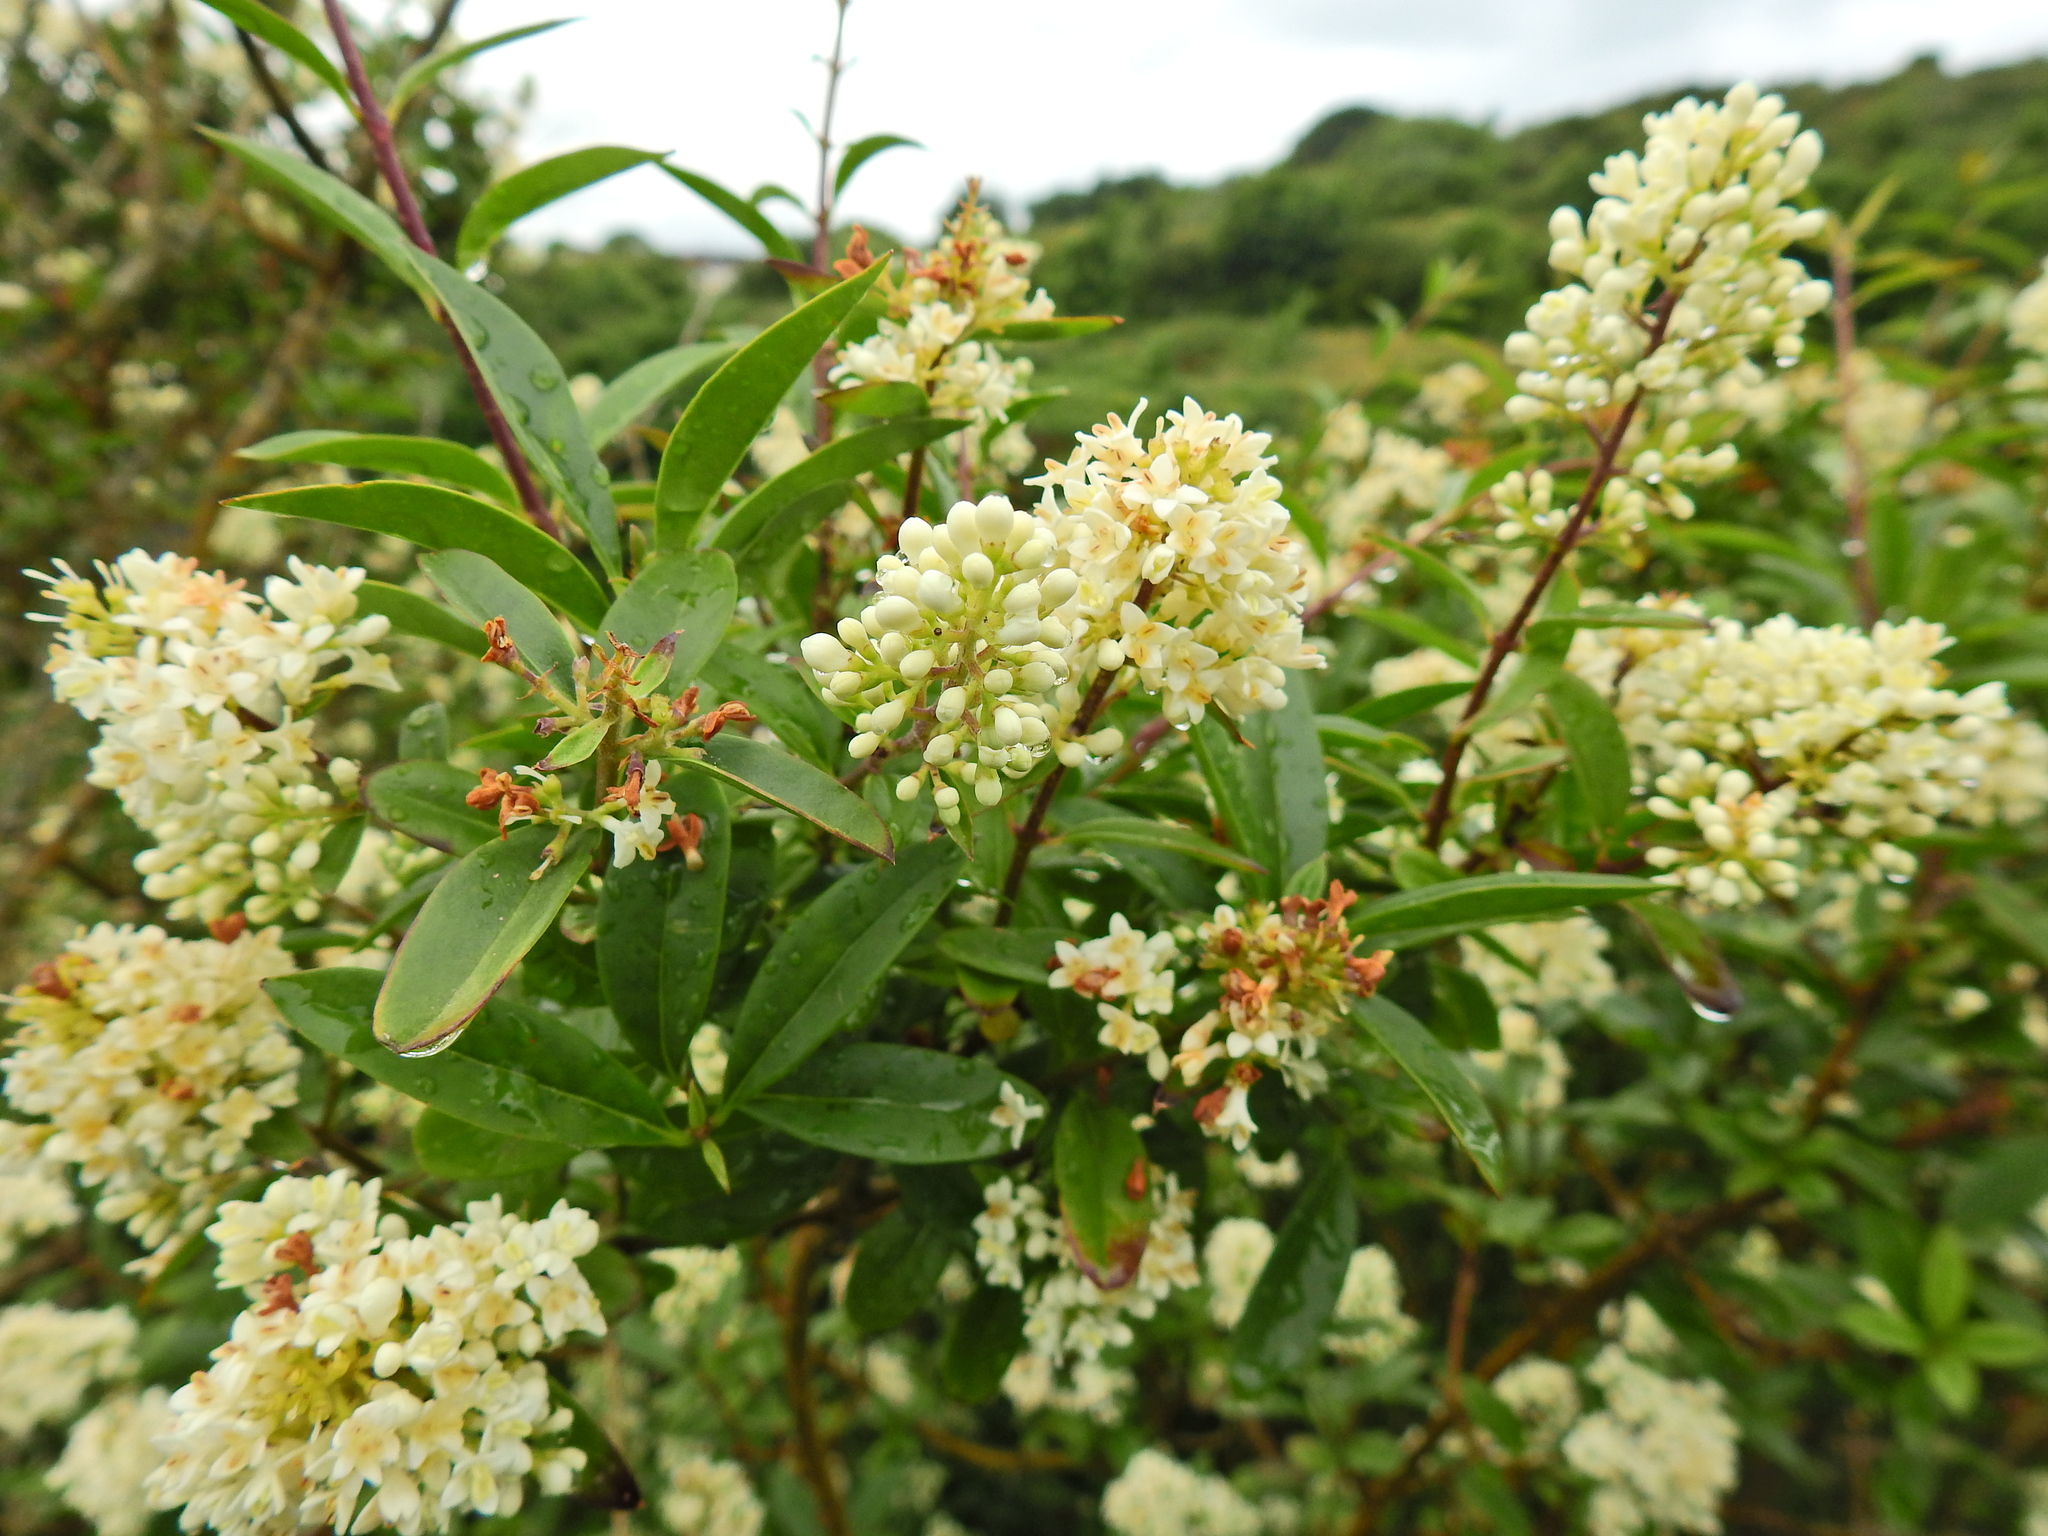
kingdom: Plantae
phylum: Tracheophyta
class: Magnoliopsida
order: Lamiales
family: Oleaceae
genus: Ligustrum
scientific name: Ligustrum vulgare
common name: Wild privet
